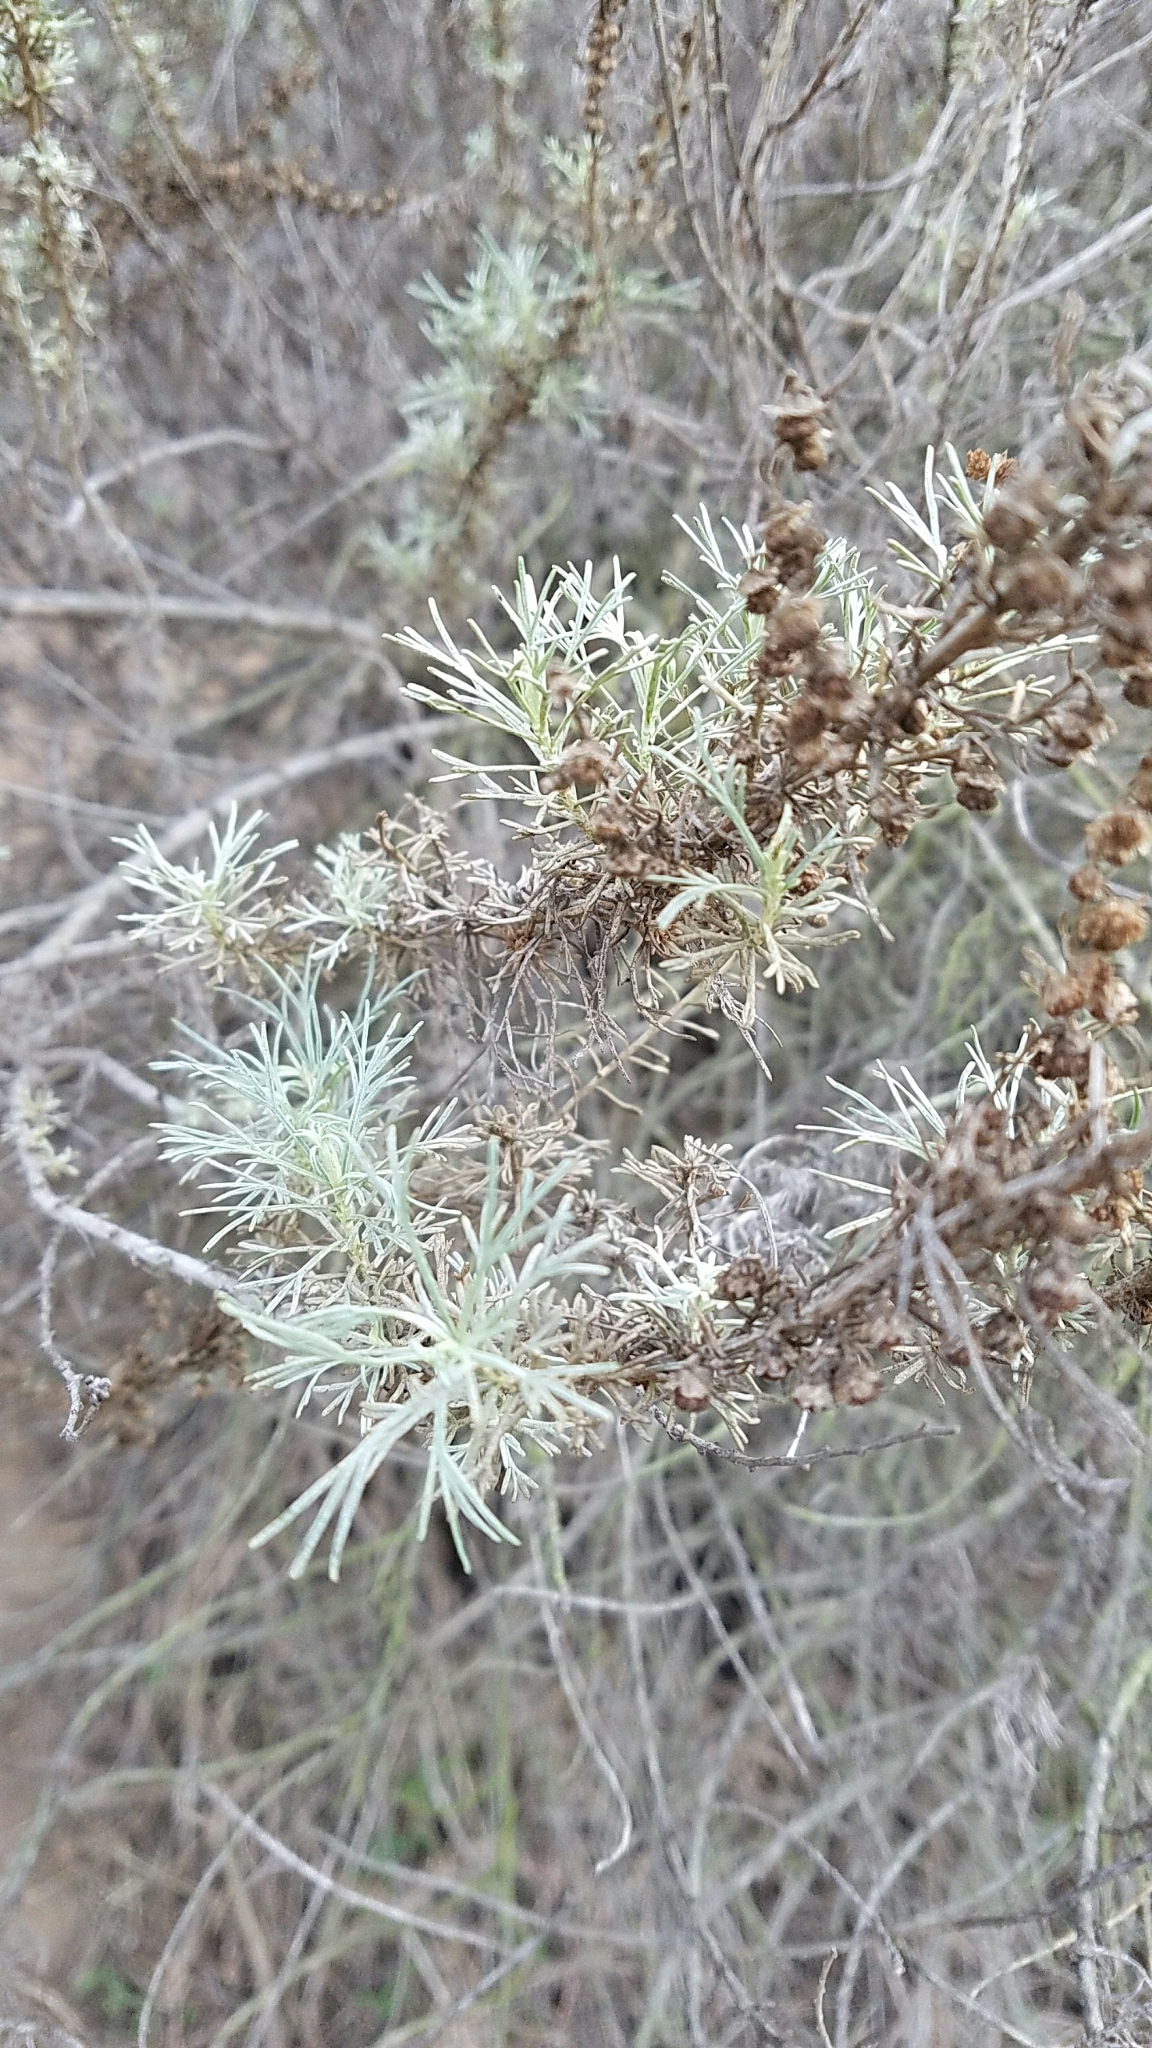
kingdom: Plantae
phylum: Tracheophyta
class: Magnoliopsida
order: Asterales
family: Asteraceae
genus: Artemisia
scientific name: Artemisia californica
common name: California sagebrush
